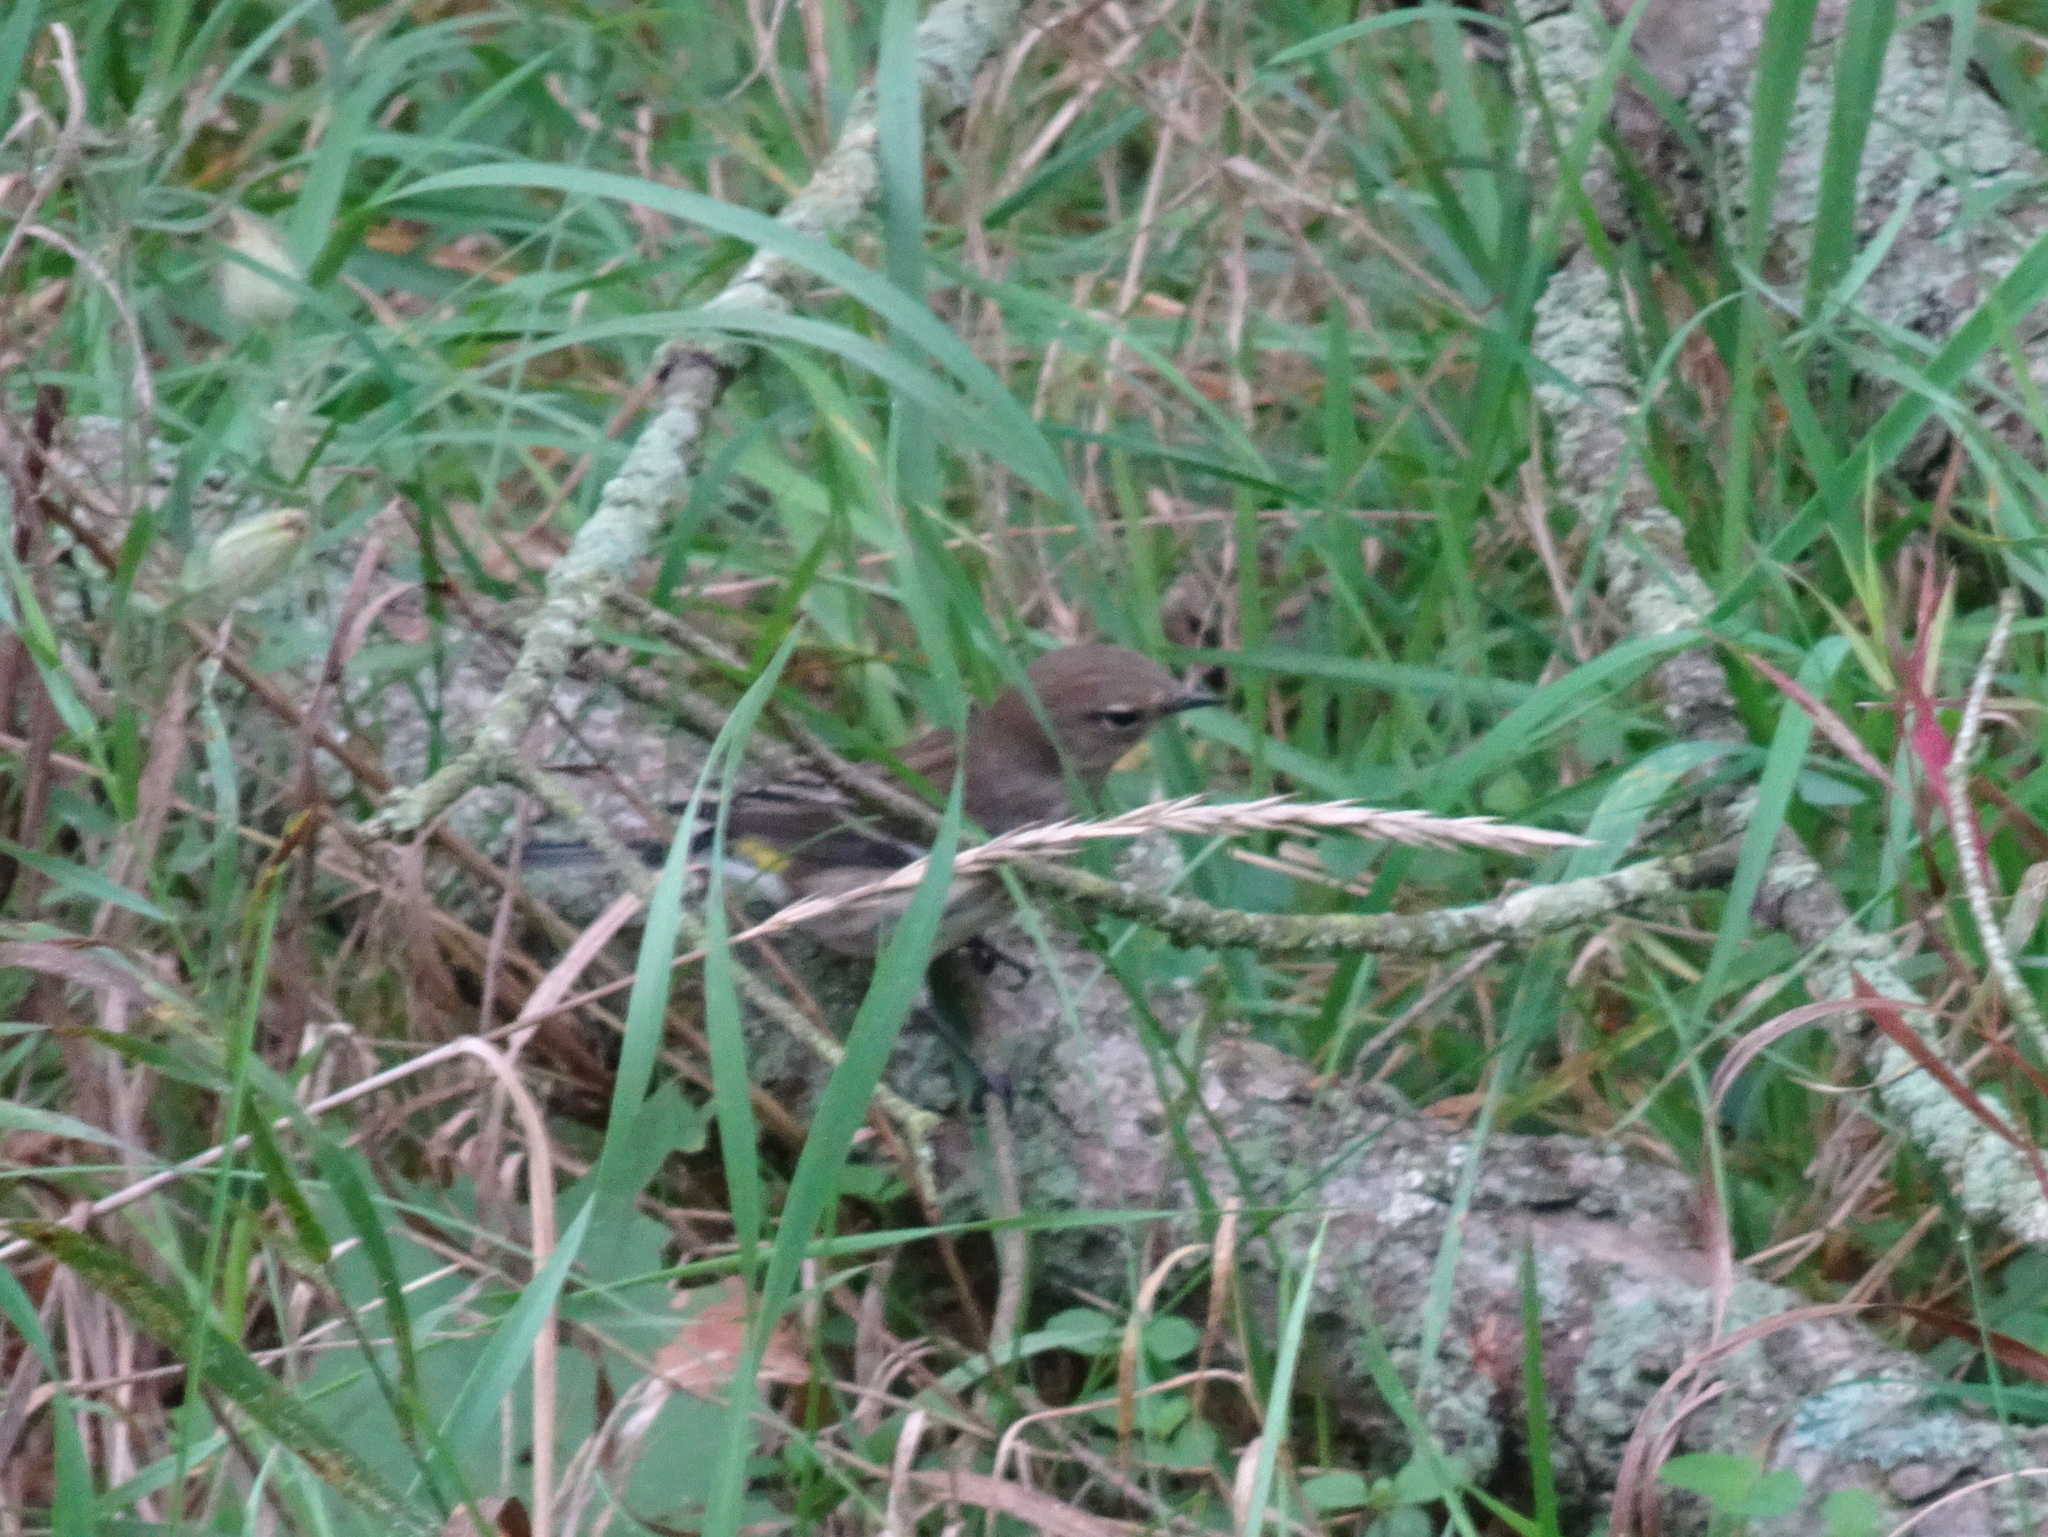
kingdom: Animalia
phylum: Chordata
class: Aves
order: Passeriformes
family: Parulidae
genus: Setophaga
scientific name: Setophaga coronata
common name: Myrtle warbler
